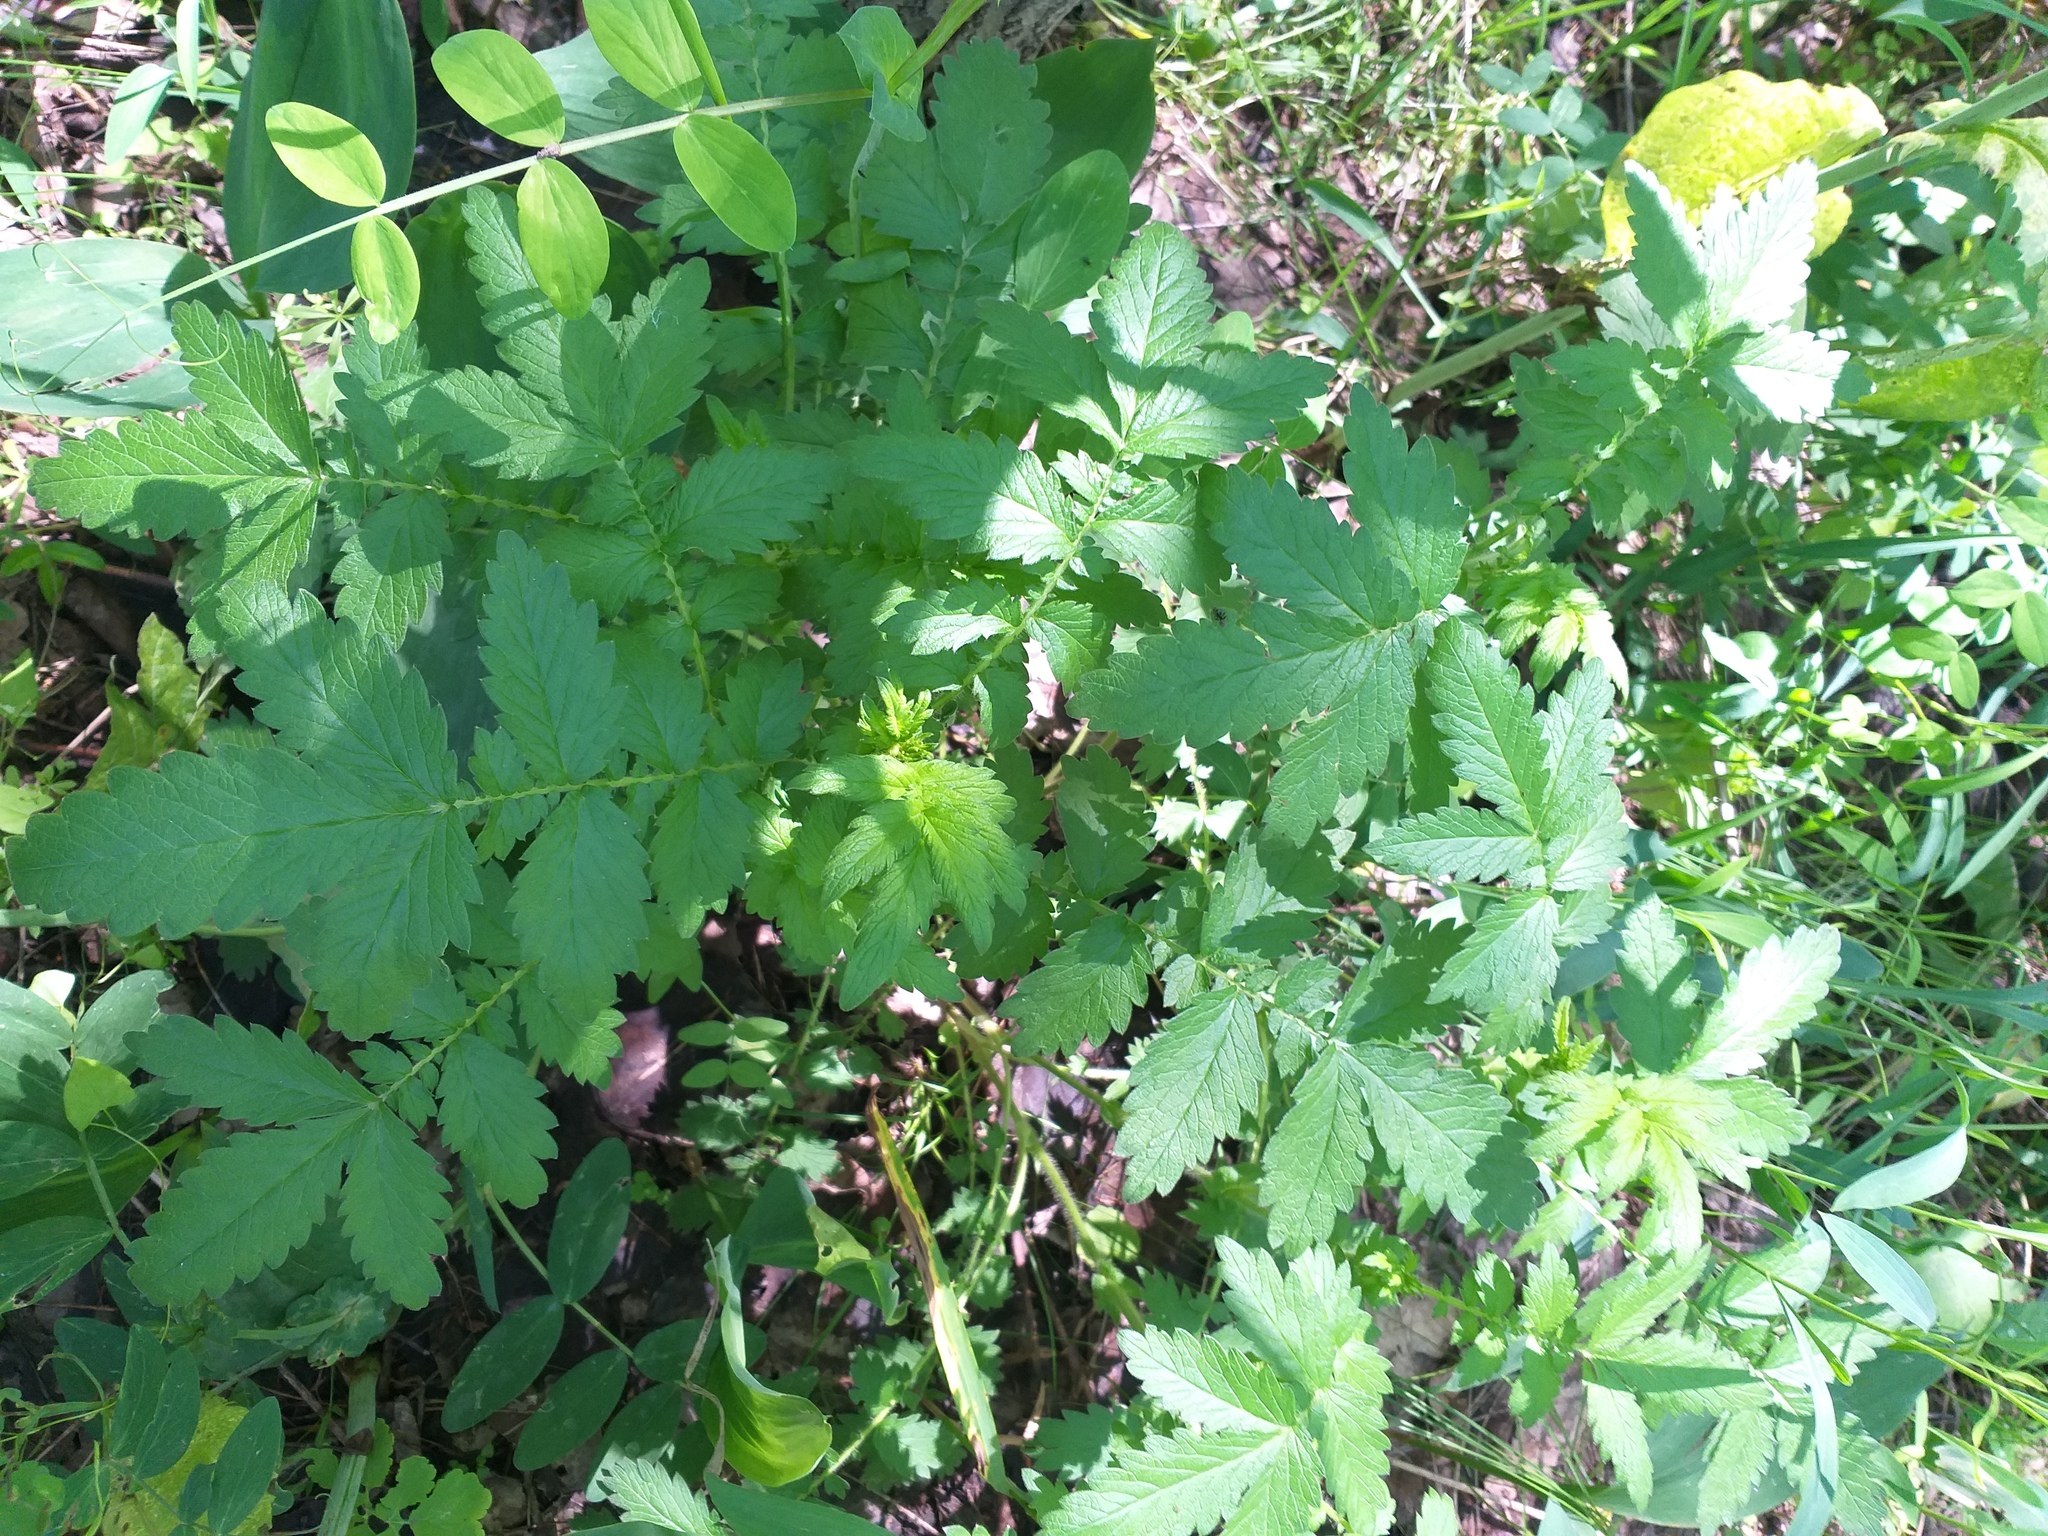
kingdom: Plantae
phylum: Tracheophyta
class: Magnoliopsida
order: Rosales
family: Rosaceae
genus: Agrimonia
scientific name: Agrimonia eupatoria
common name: Agrimony
